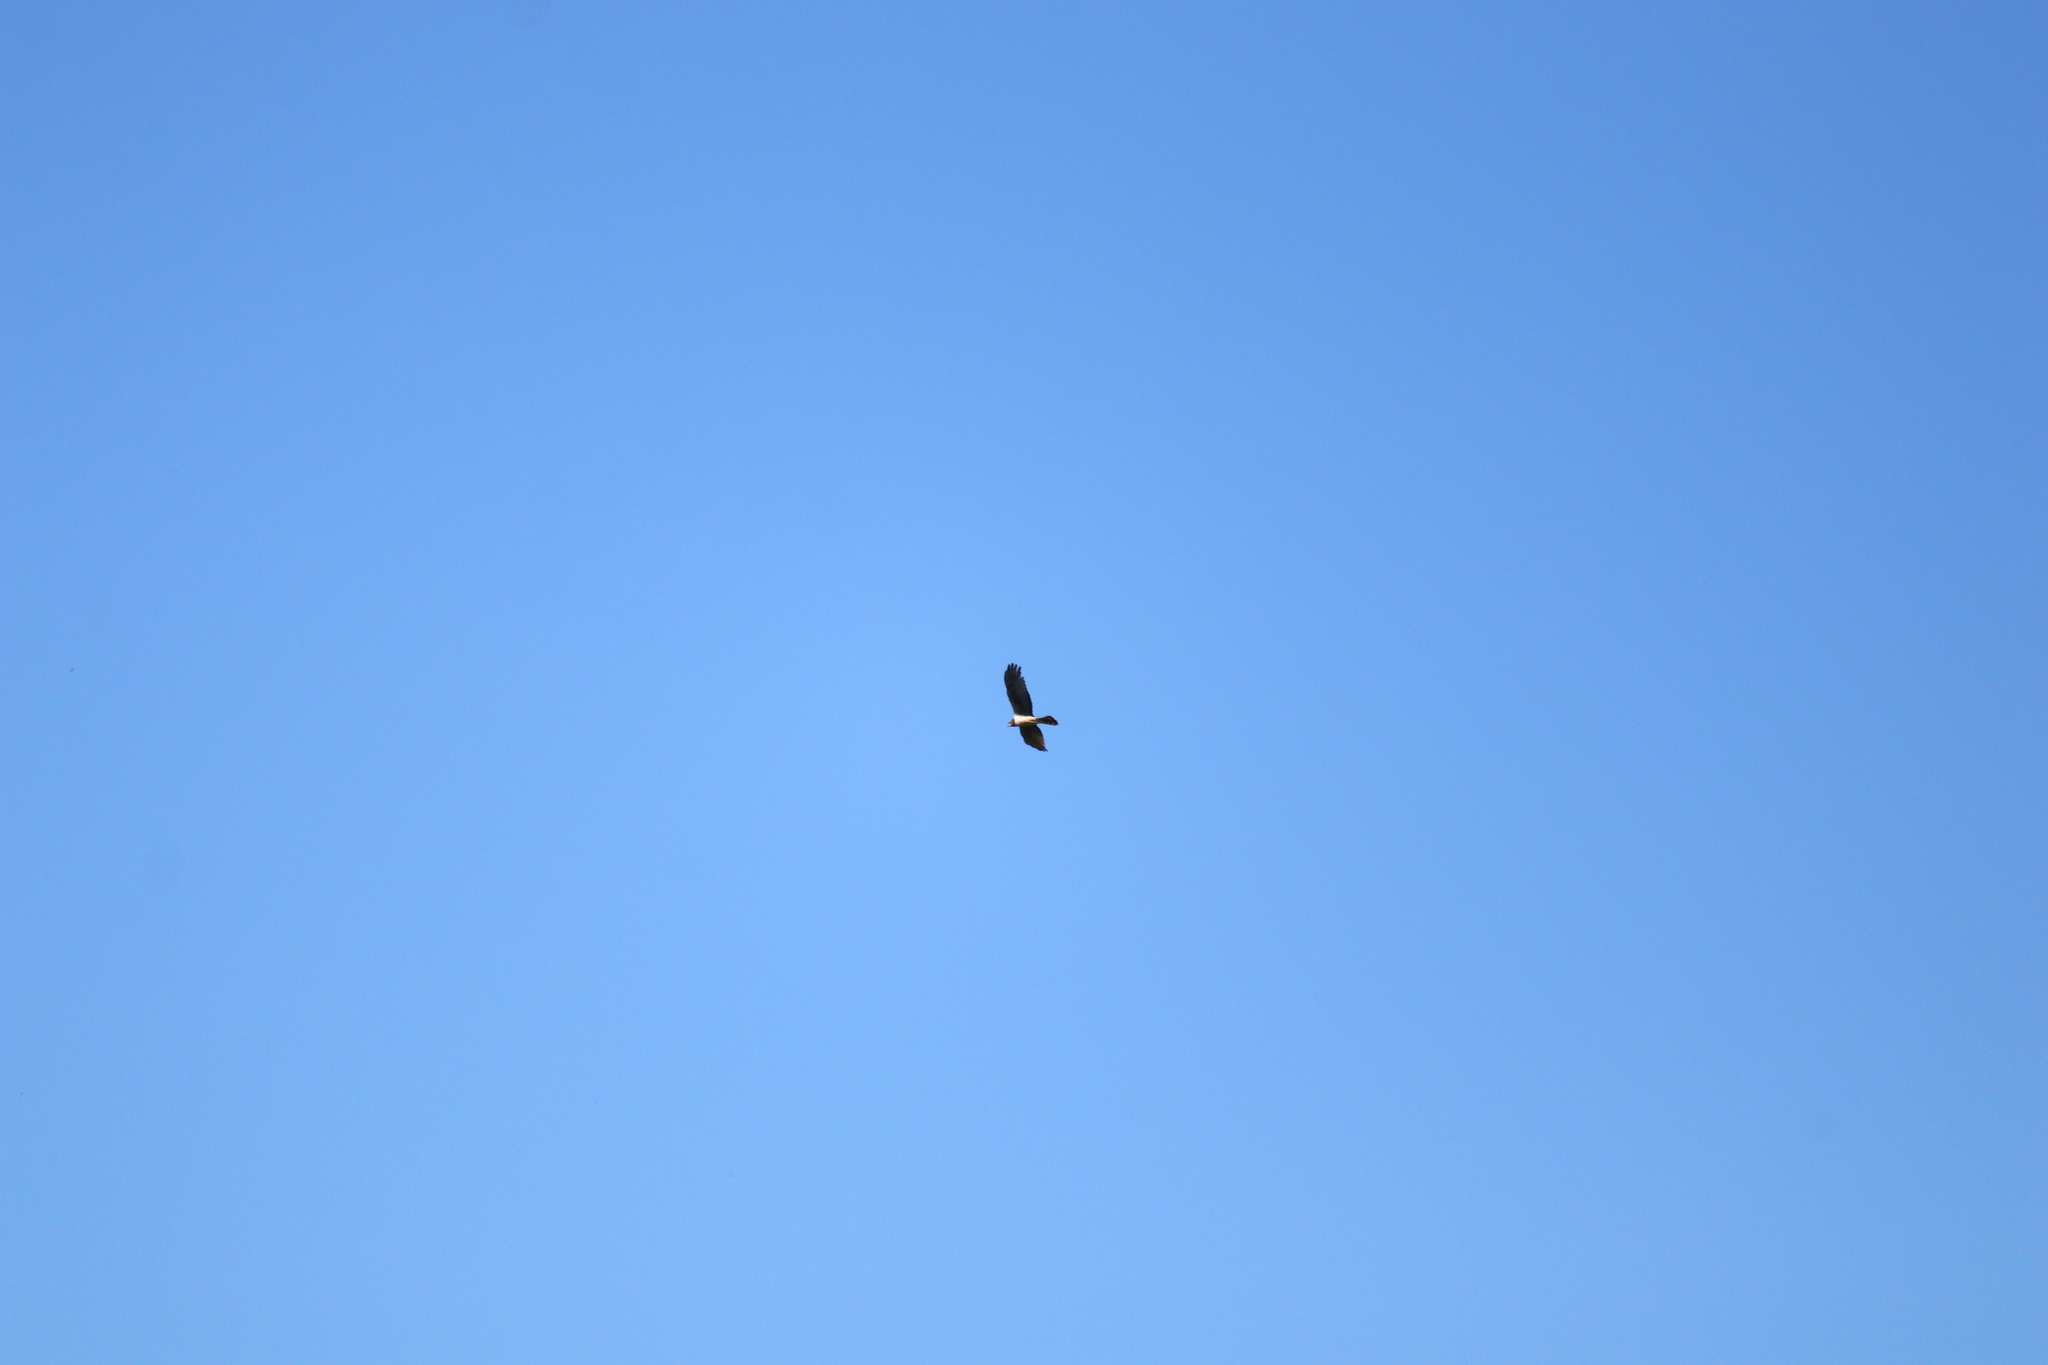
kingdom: Animalia
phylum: Chordata
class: Aves
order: Accipitriformes
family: Accipitridae
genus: Circus
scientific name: Circus buffoni
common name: Long-winged harrier
